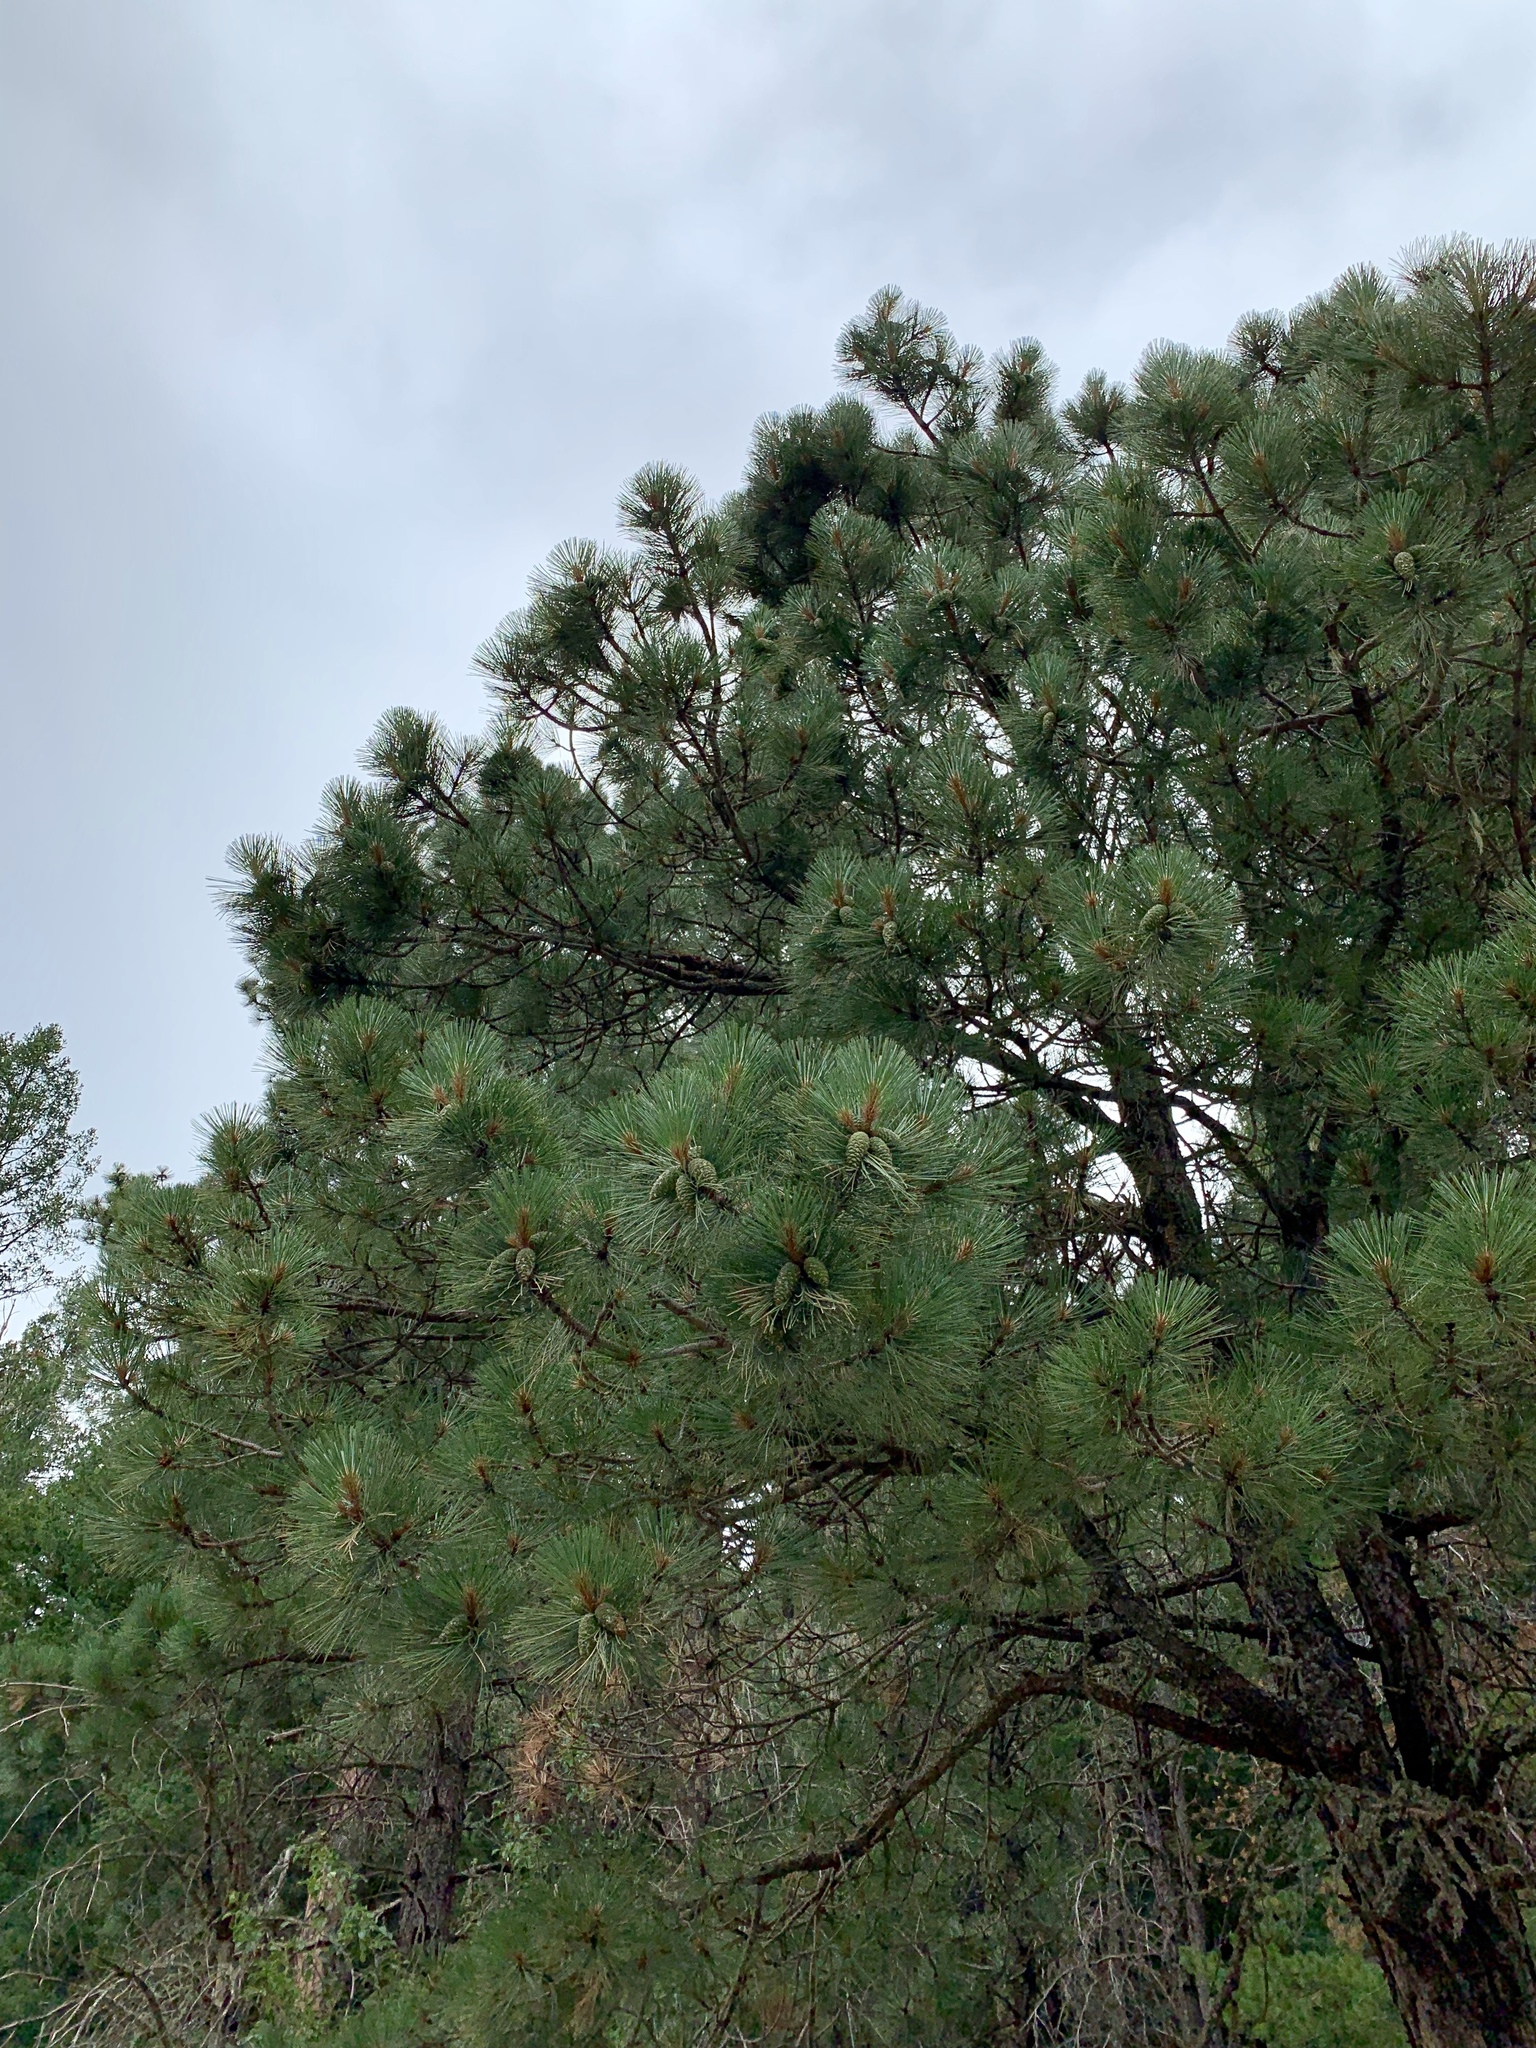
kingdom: Plantae
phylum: Tracheophyta
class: Pinopsida
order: Pinales
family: Pinaceae
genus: Pinus
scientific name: Pinus ponderosa
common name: Western yellow-pine
